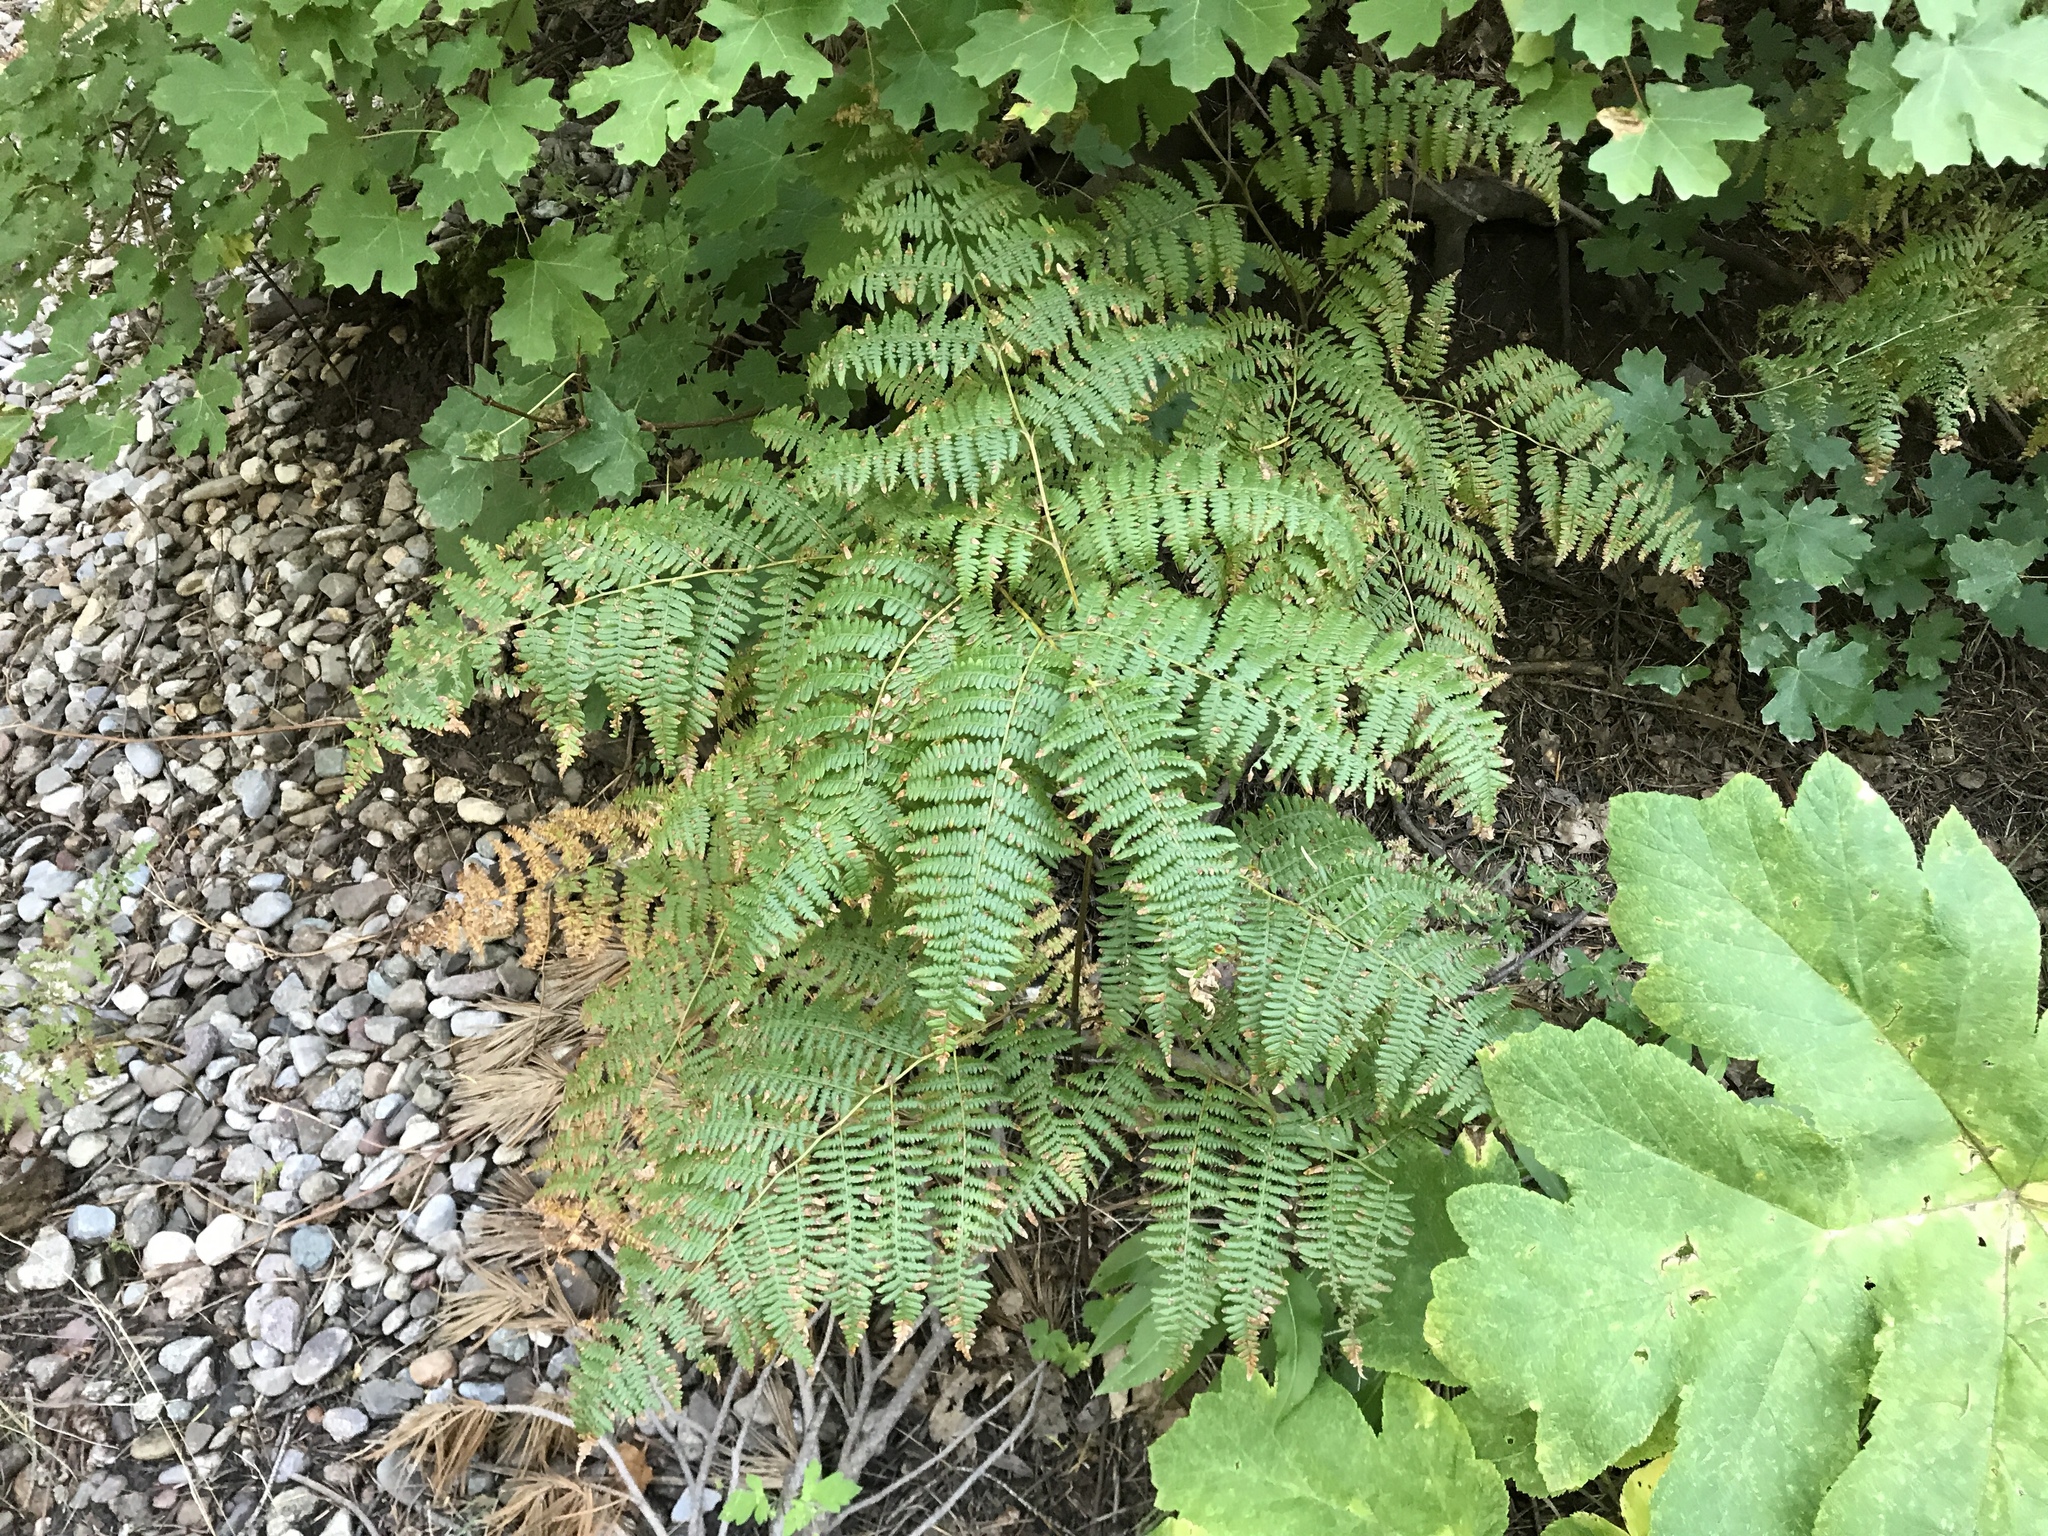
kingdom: Plantae
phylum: Tracheophyta
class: Polypodiopsida
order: Polypodiales
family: Dennstaedtiaceae
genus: Pteridium
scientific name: Pteridium aquilinum
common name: Bracken
